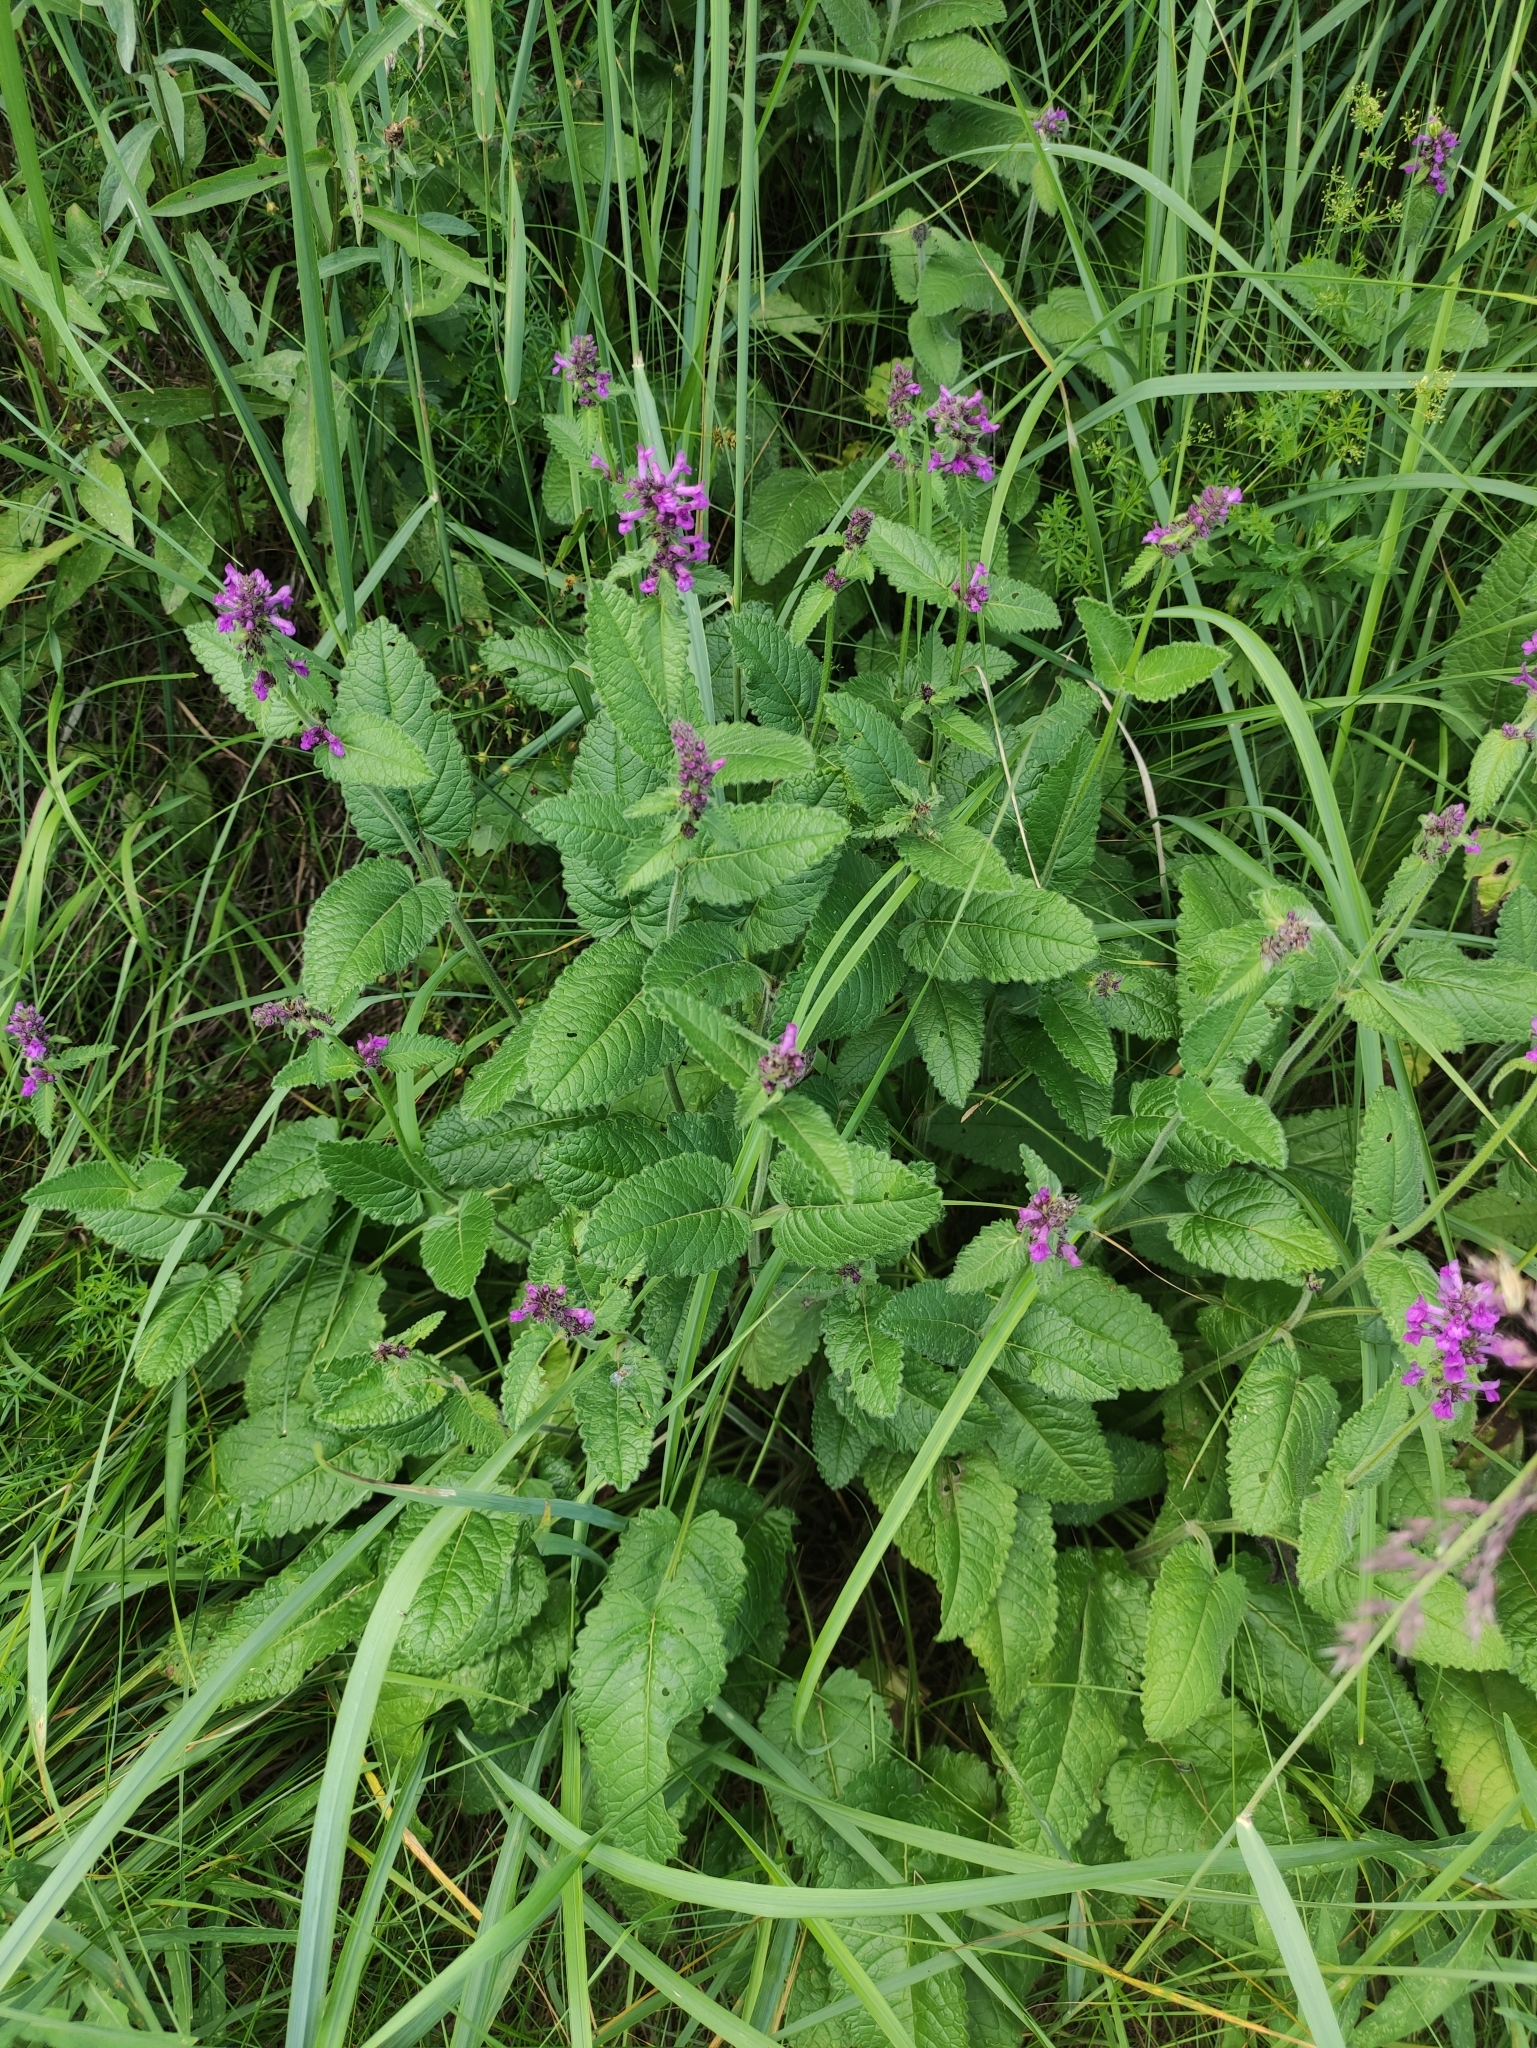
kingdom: Plantae
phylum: Tracheophyta
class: Magnoliopsida
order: Lamiales
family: Lamiaceae
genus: Betonica
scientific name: Betonica officinalis
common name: Bishop's-wort
